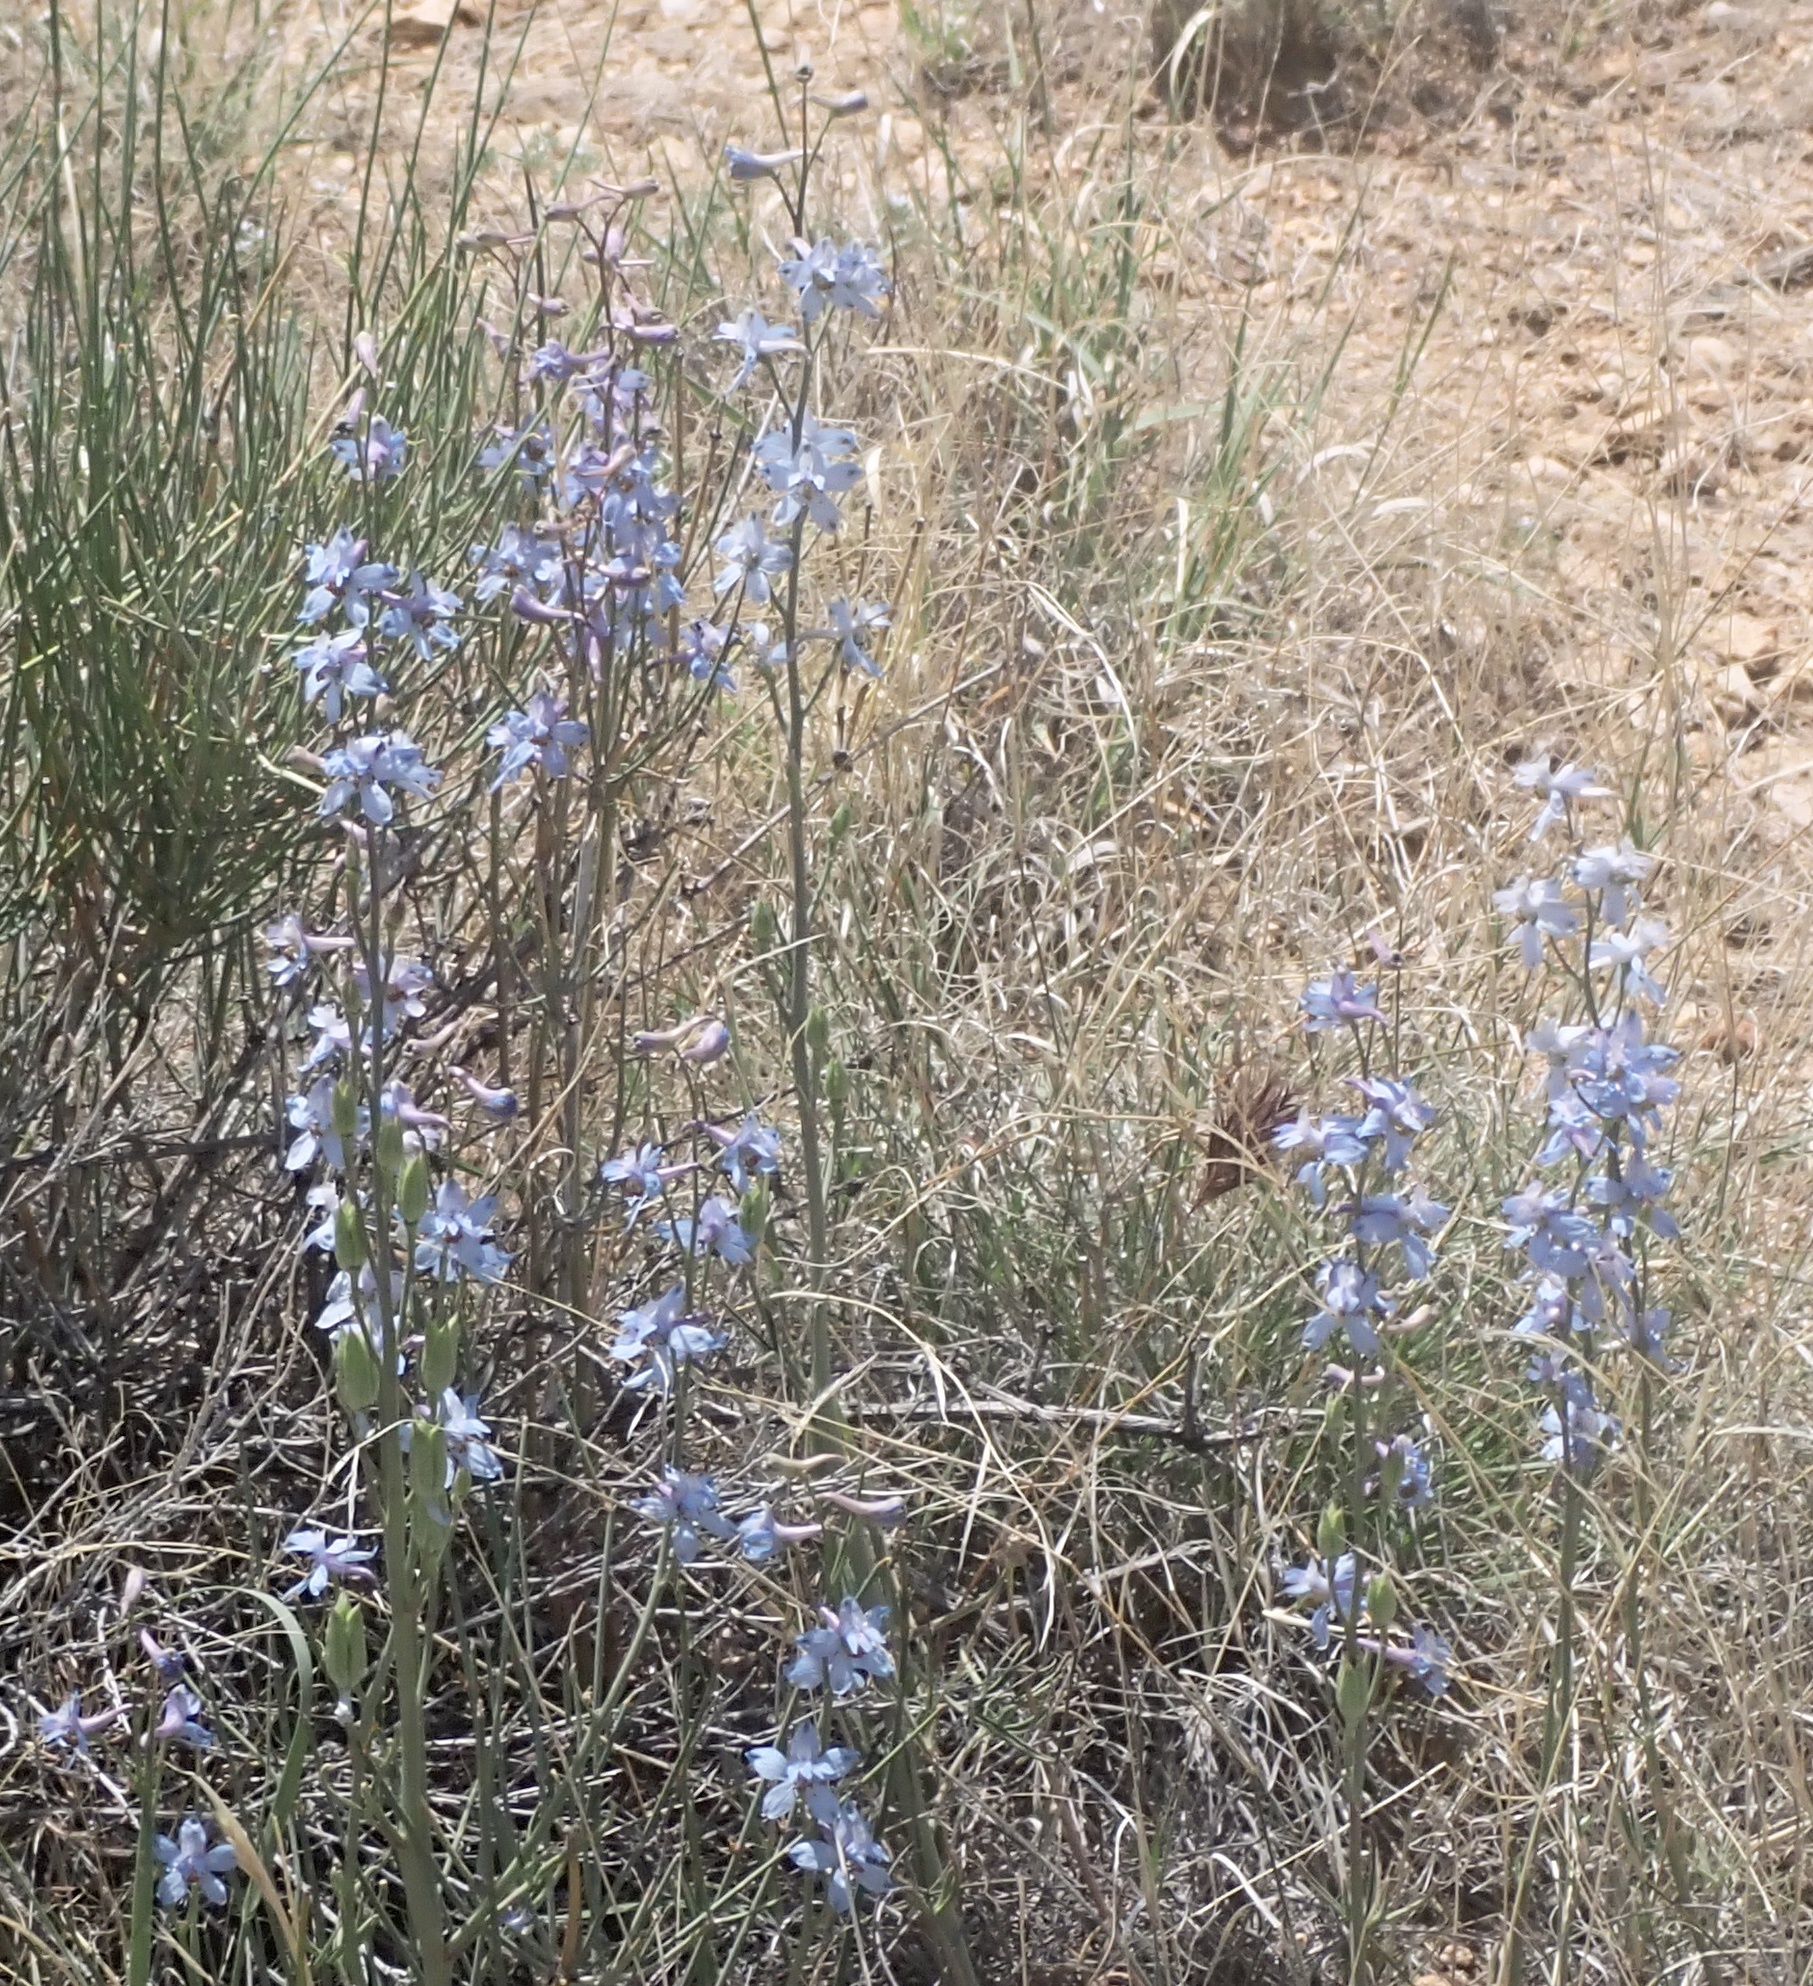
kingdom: Plantae
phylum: Tracheophyta
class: Magnoliopsida
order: Ranunculales
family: Ranunculaceae
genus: Delphinium
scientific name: Delphinium parishii
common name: Apache larkspur
